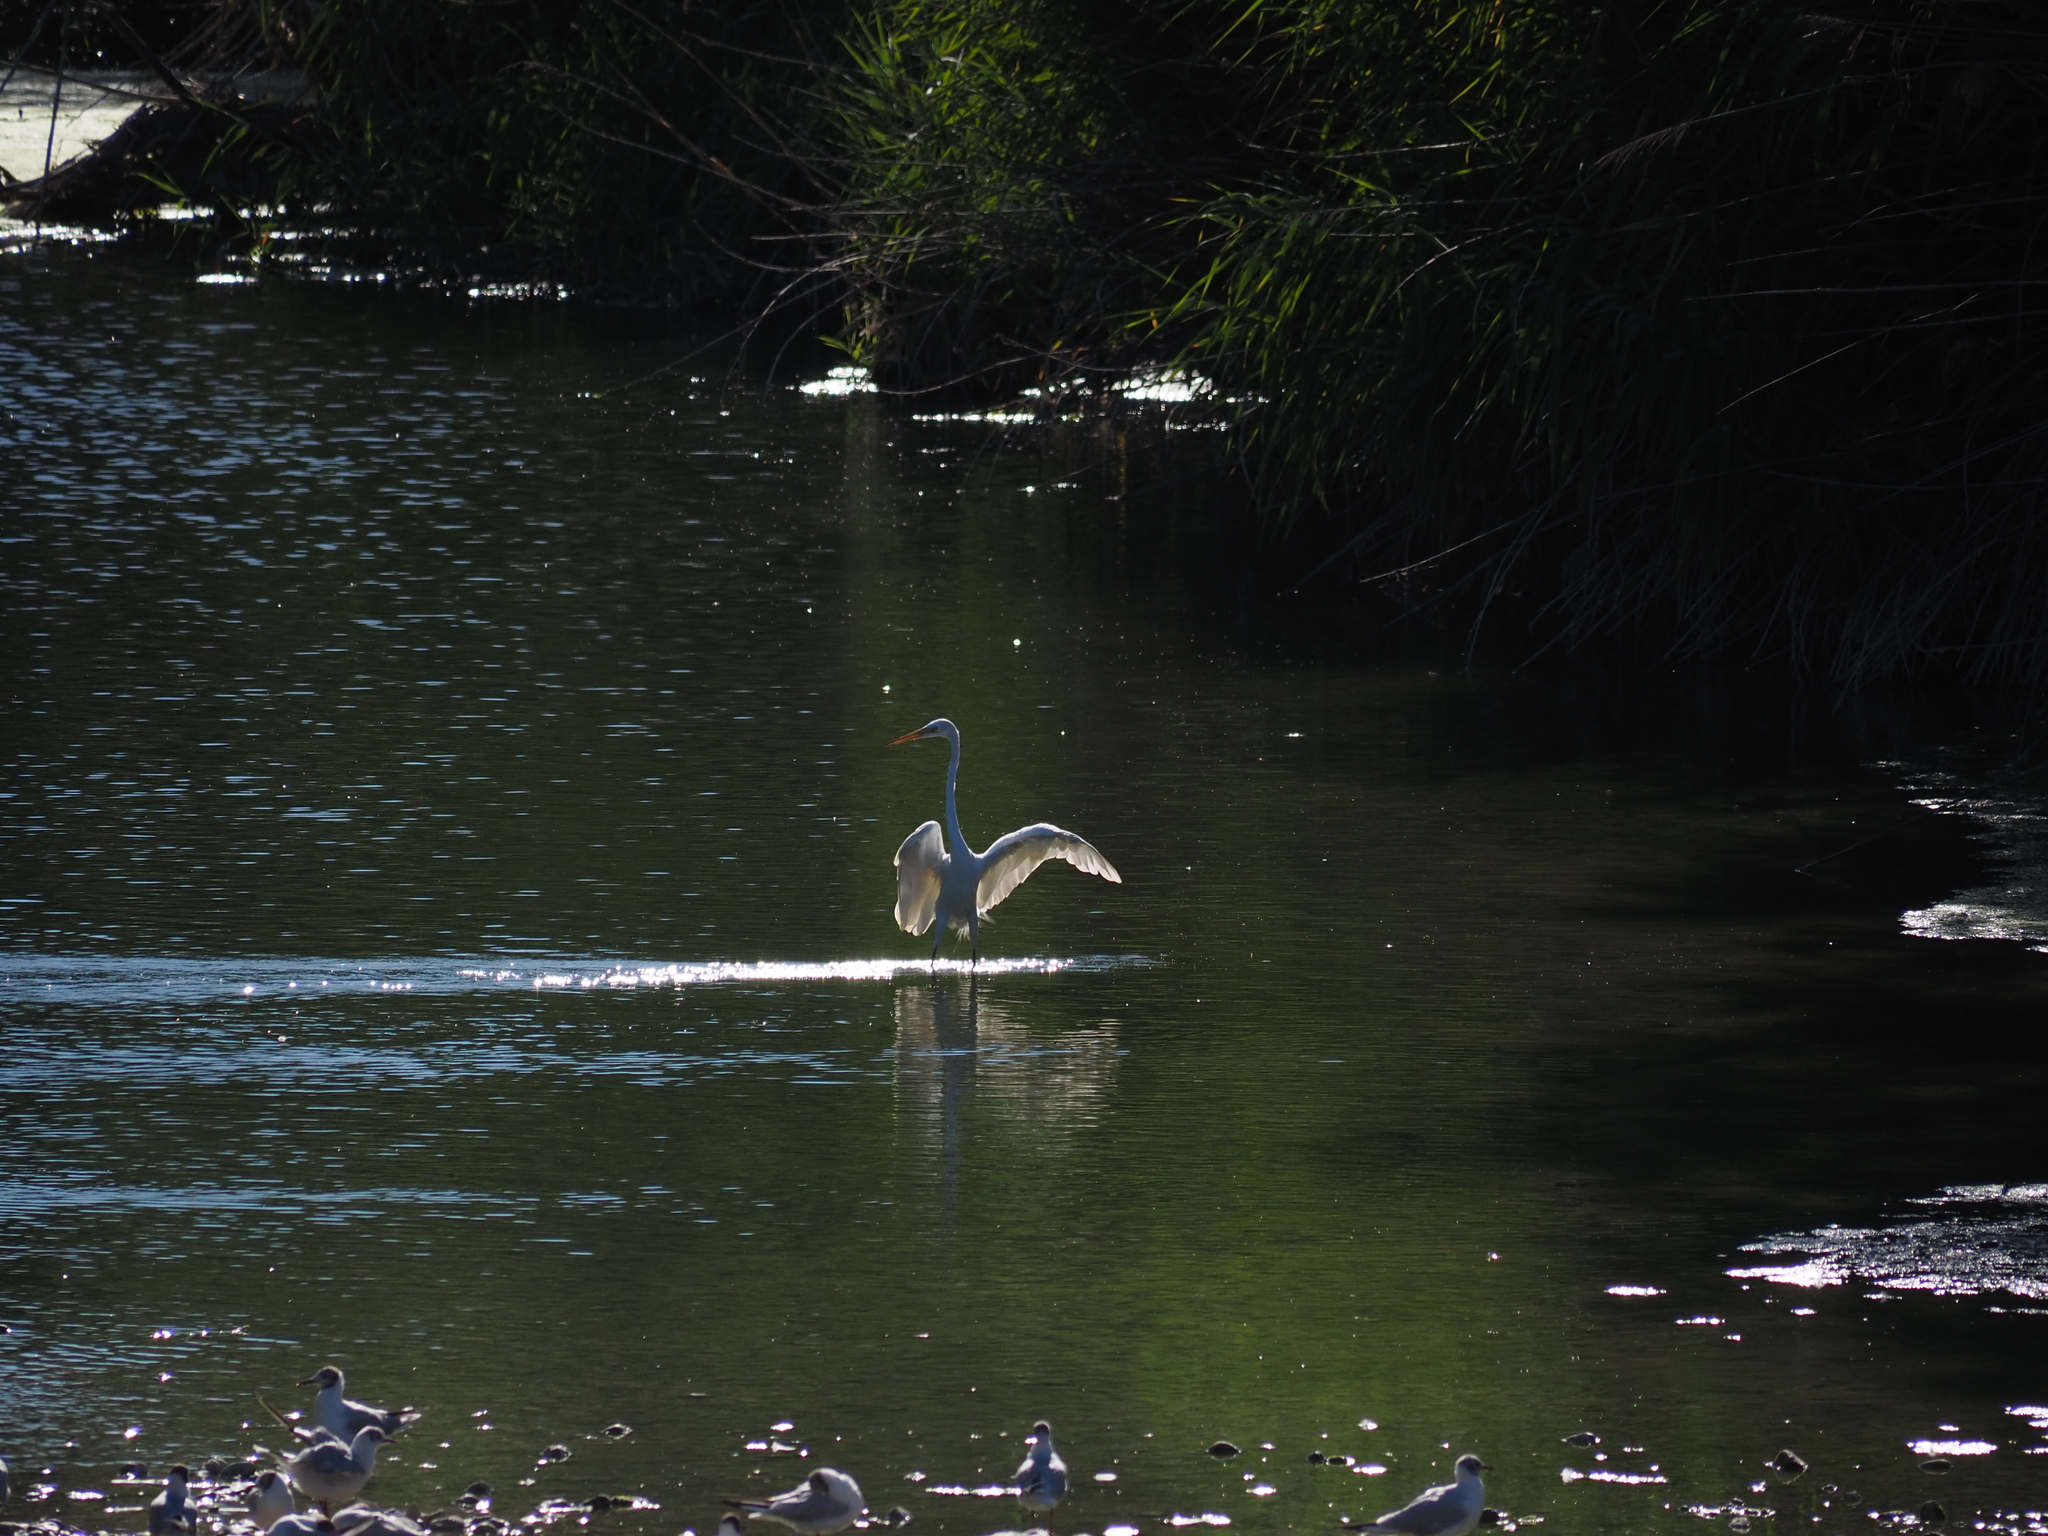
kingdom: Animalia
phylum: Chordata
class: Aves
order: Pelecaniformes
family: Ardeidae
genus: Ardea
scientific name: Ardea alba
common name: Great egret
